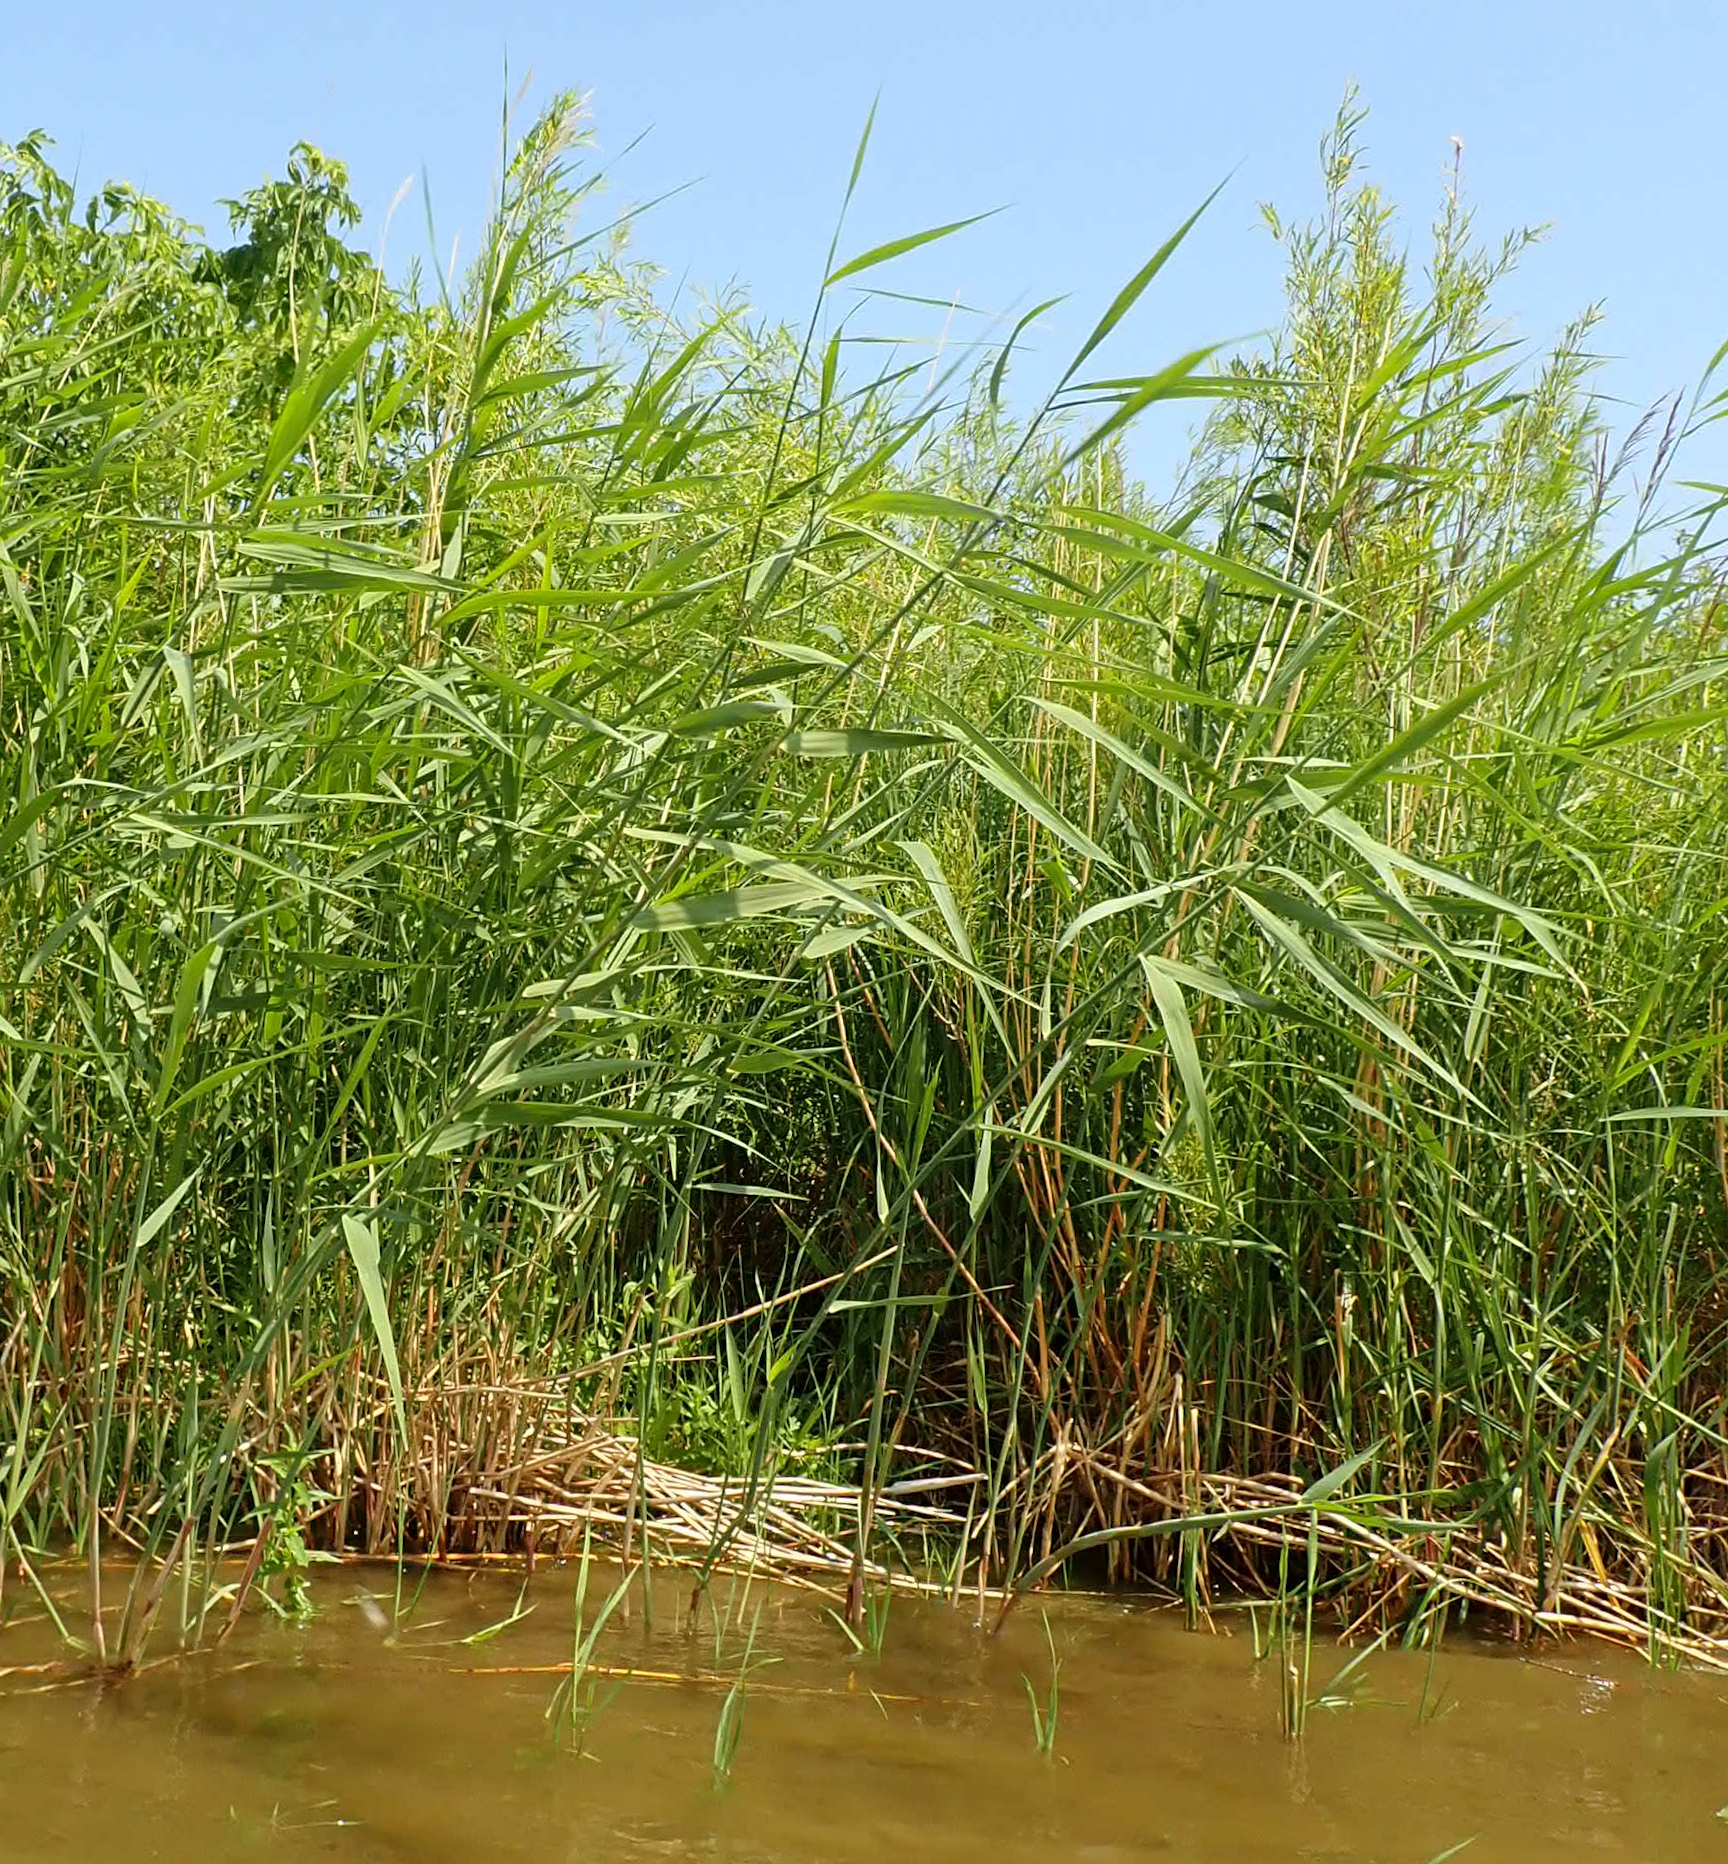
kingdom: Plantae
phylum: Tracheophyta
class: Liliopsida
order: Poales
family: Poaceae
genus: Phragmites
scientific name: Phragmites australis
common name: Common reed
